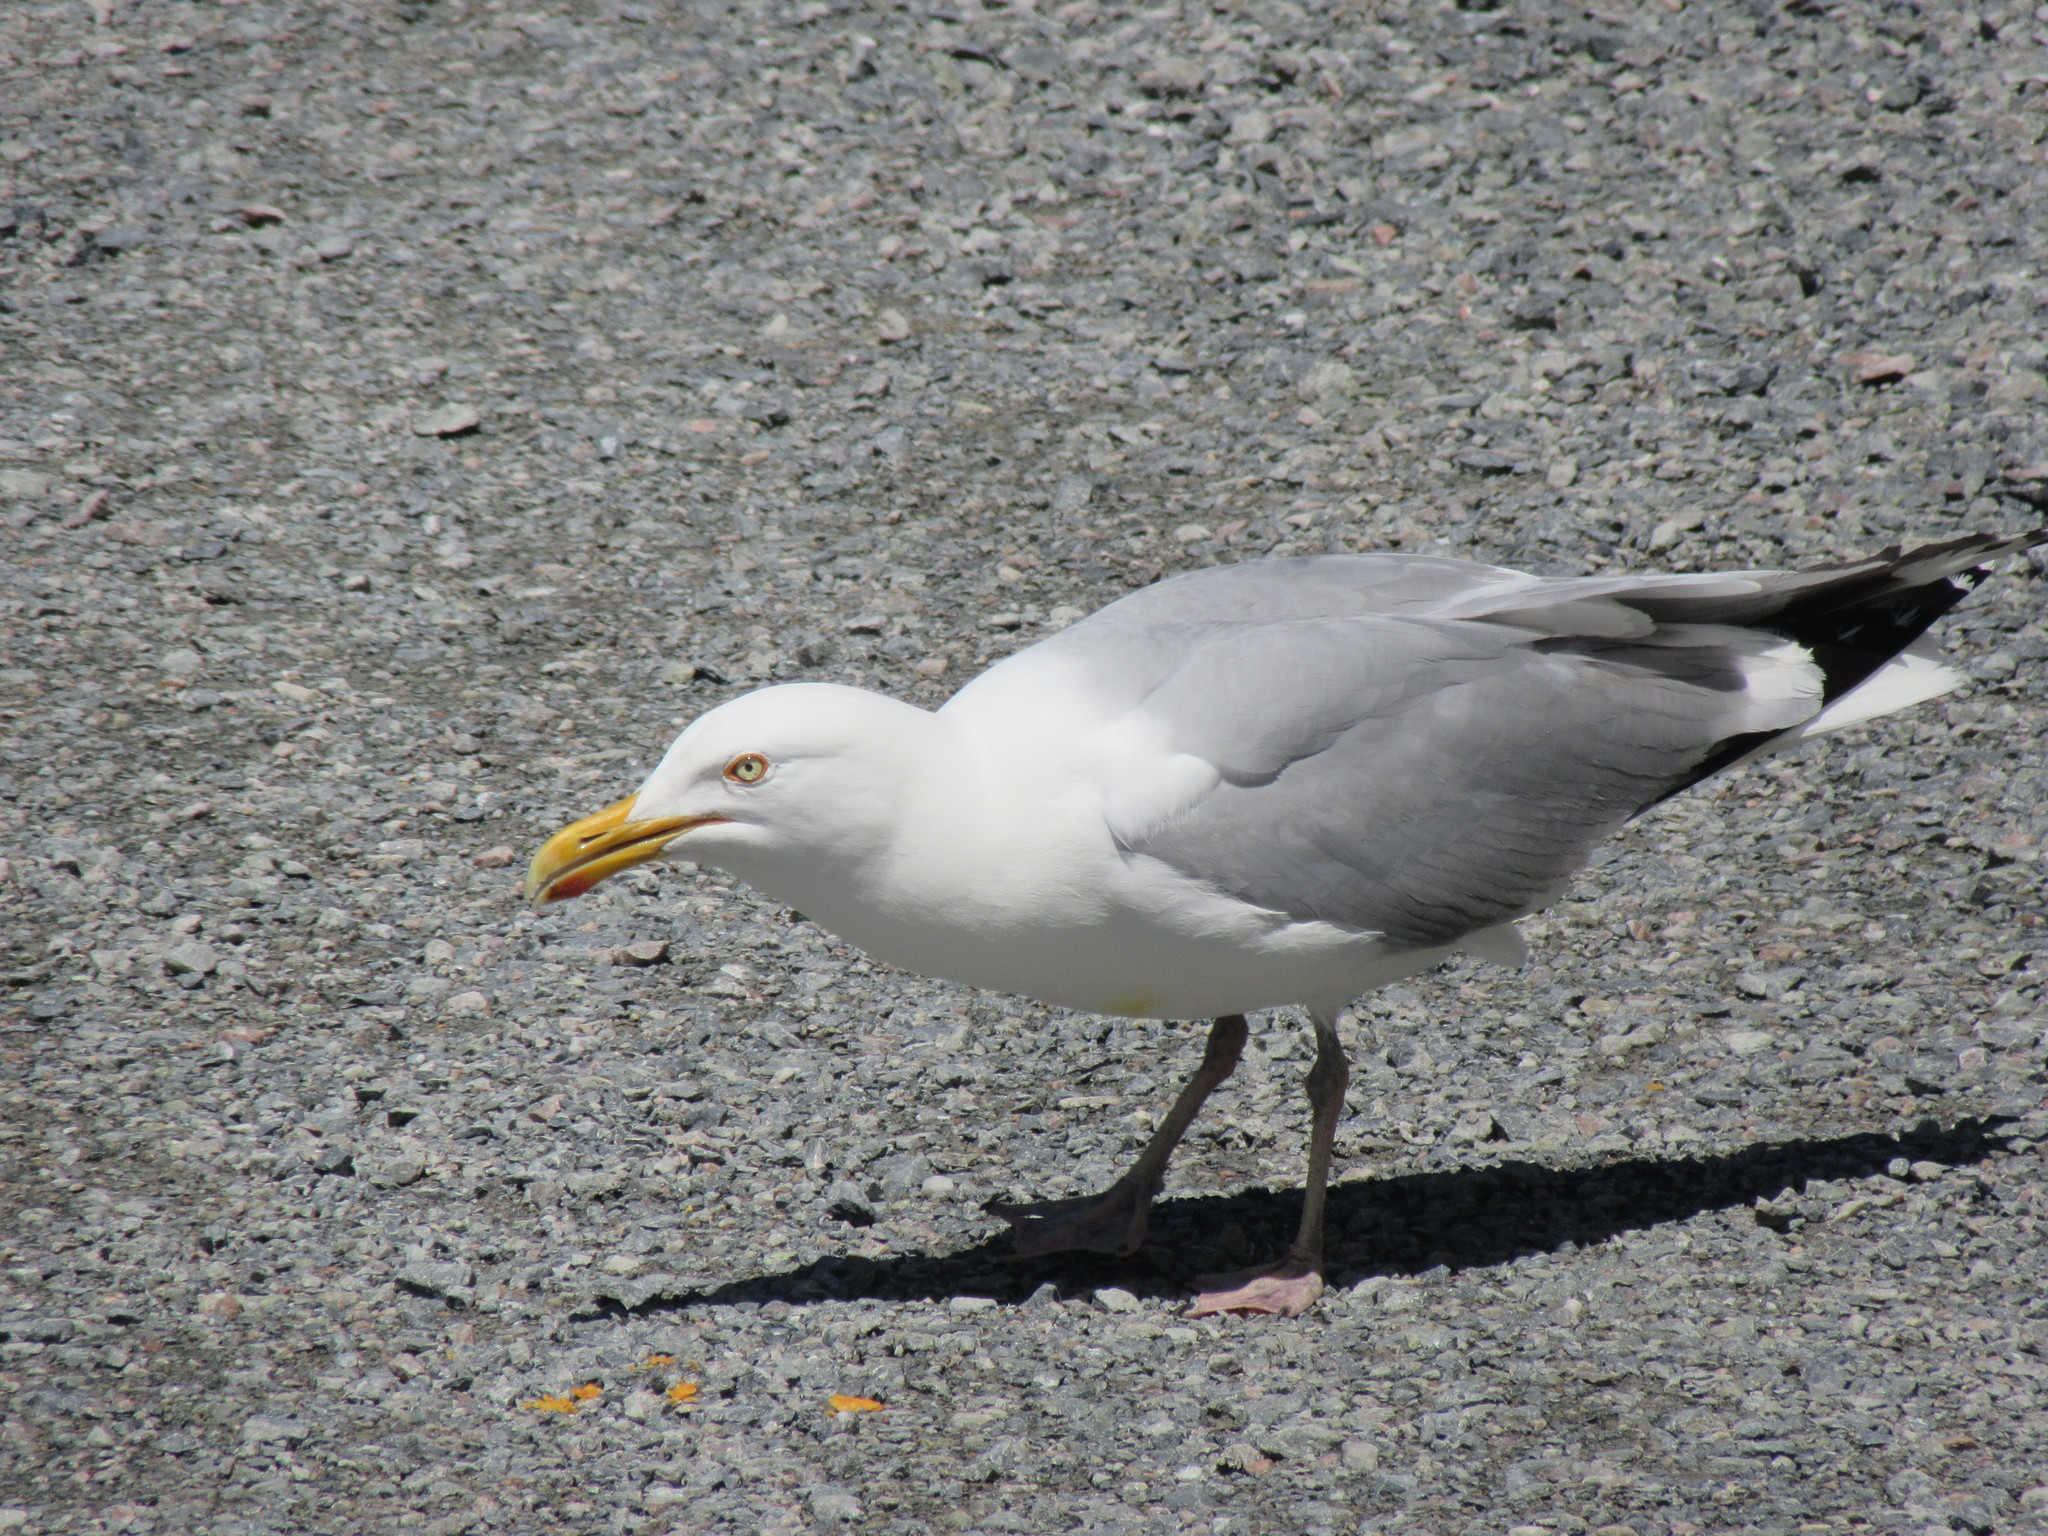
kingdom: Animalia
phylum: Chordata
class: Aves
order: Charadriiformes
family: Laridae
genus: Larus
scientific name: Larus argentatus
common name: Herring gull
